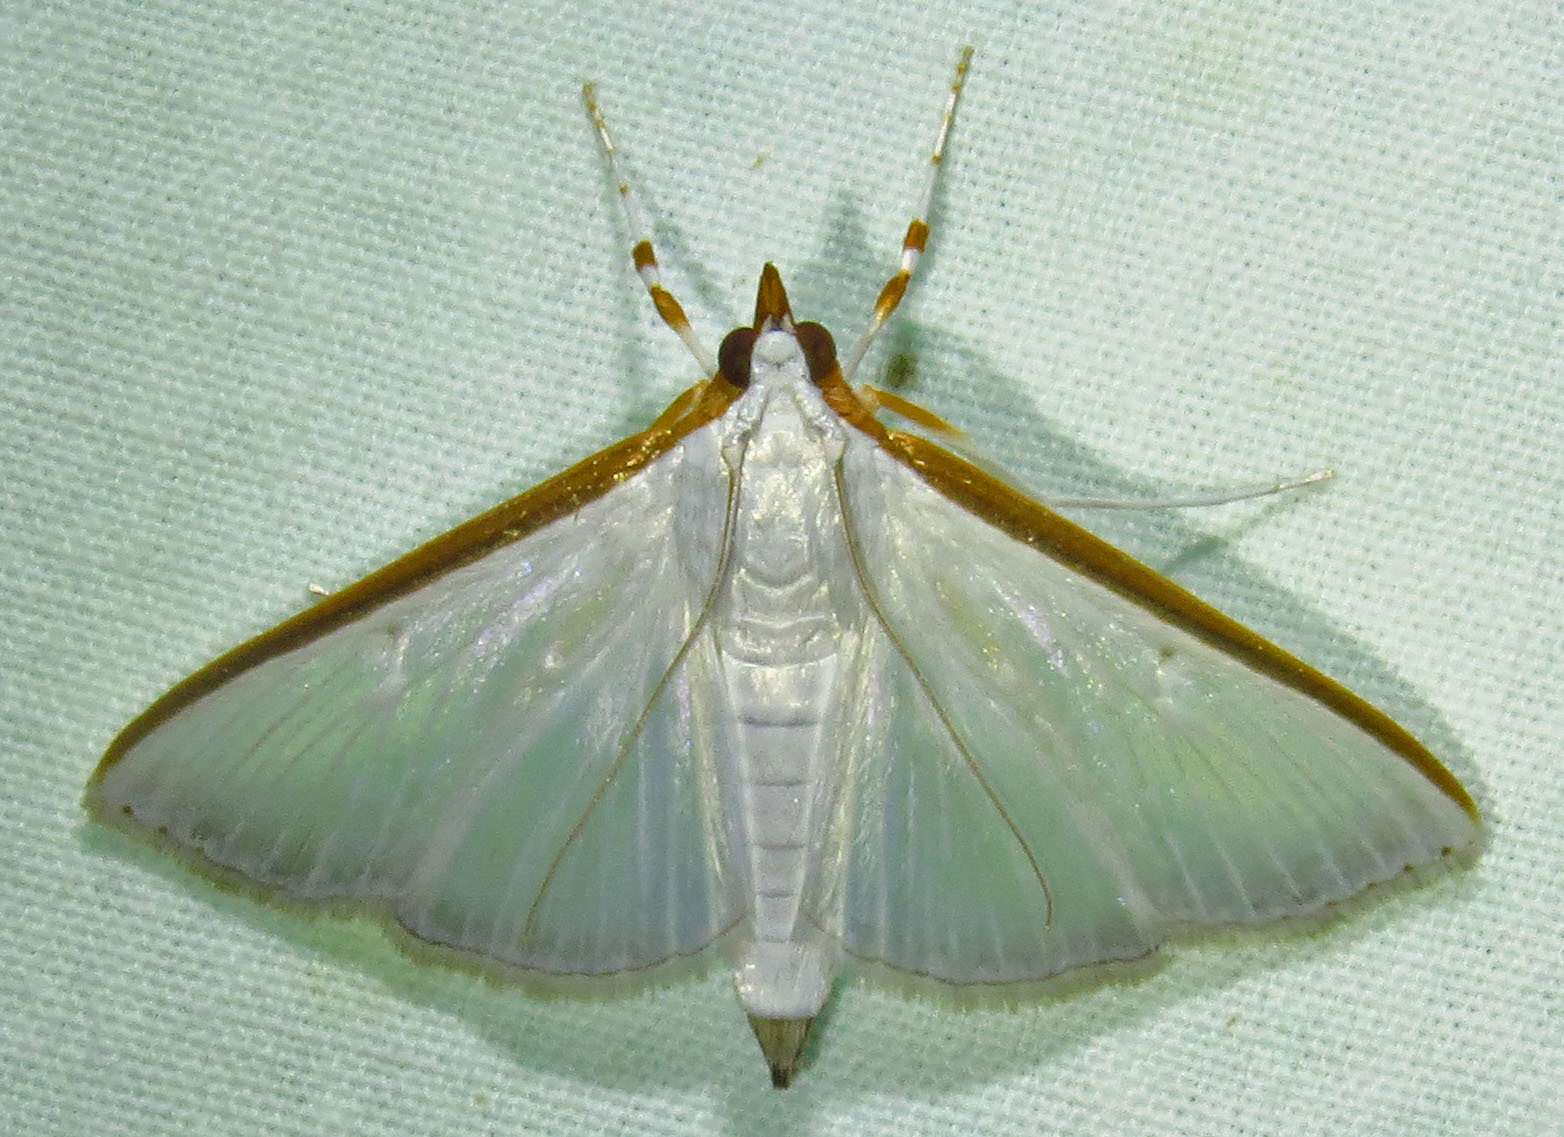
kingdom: Animalia
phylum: Arthropoda
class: Insecta
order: Lepidoptera
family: Crambidae
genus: Diaphania
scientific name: Diaphania costata
